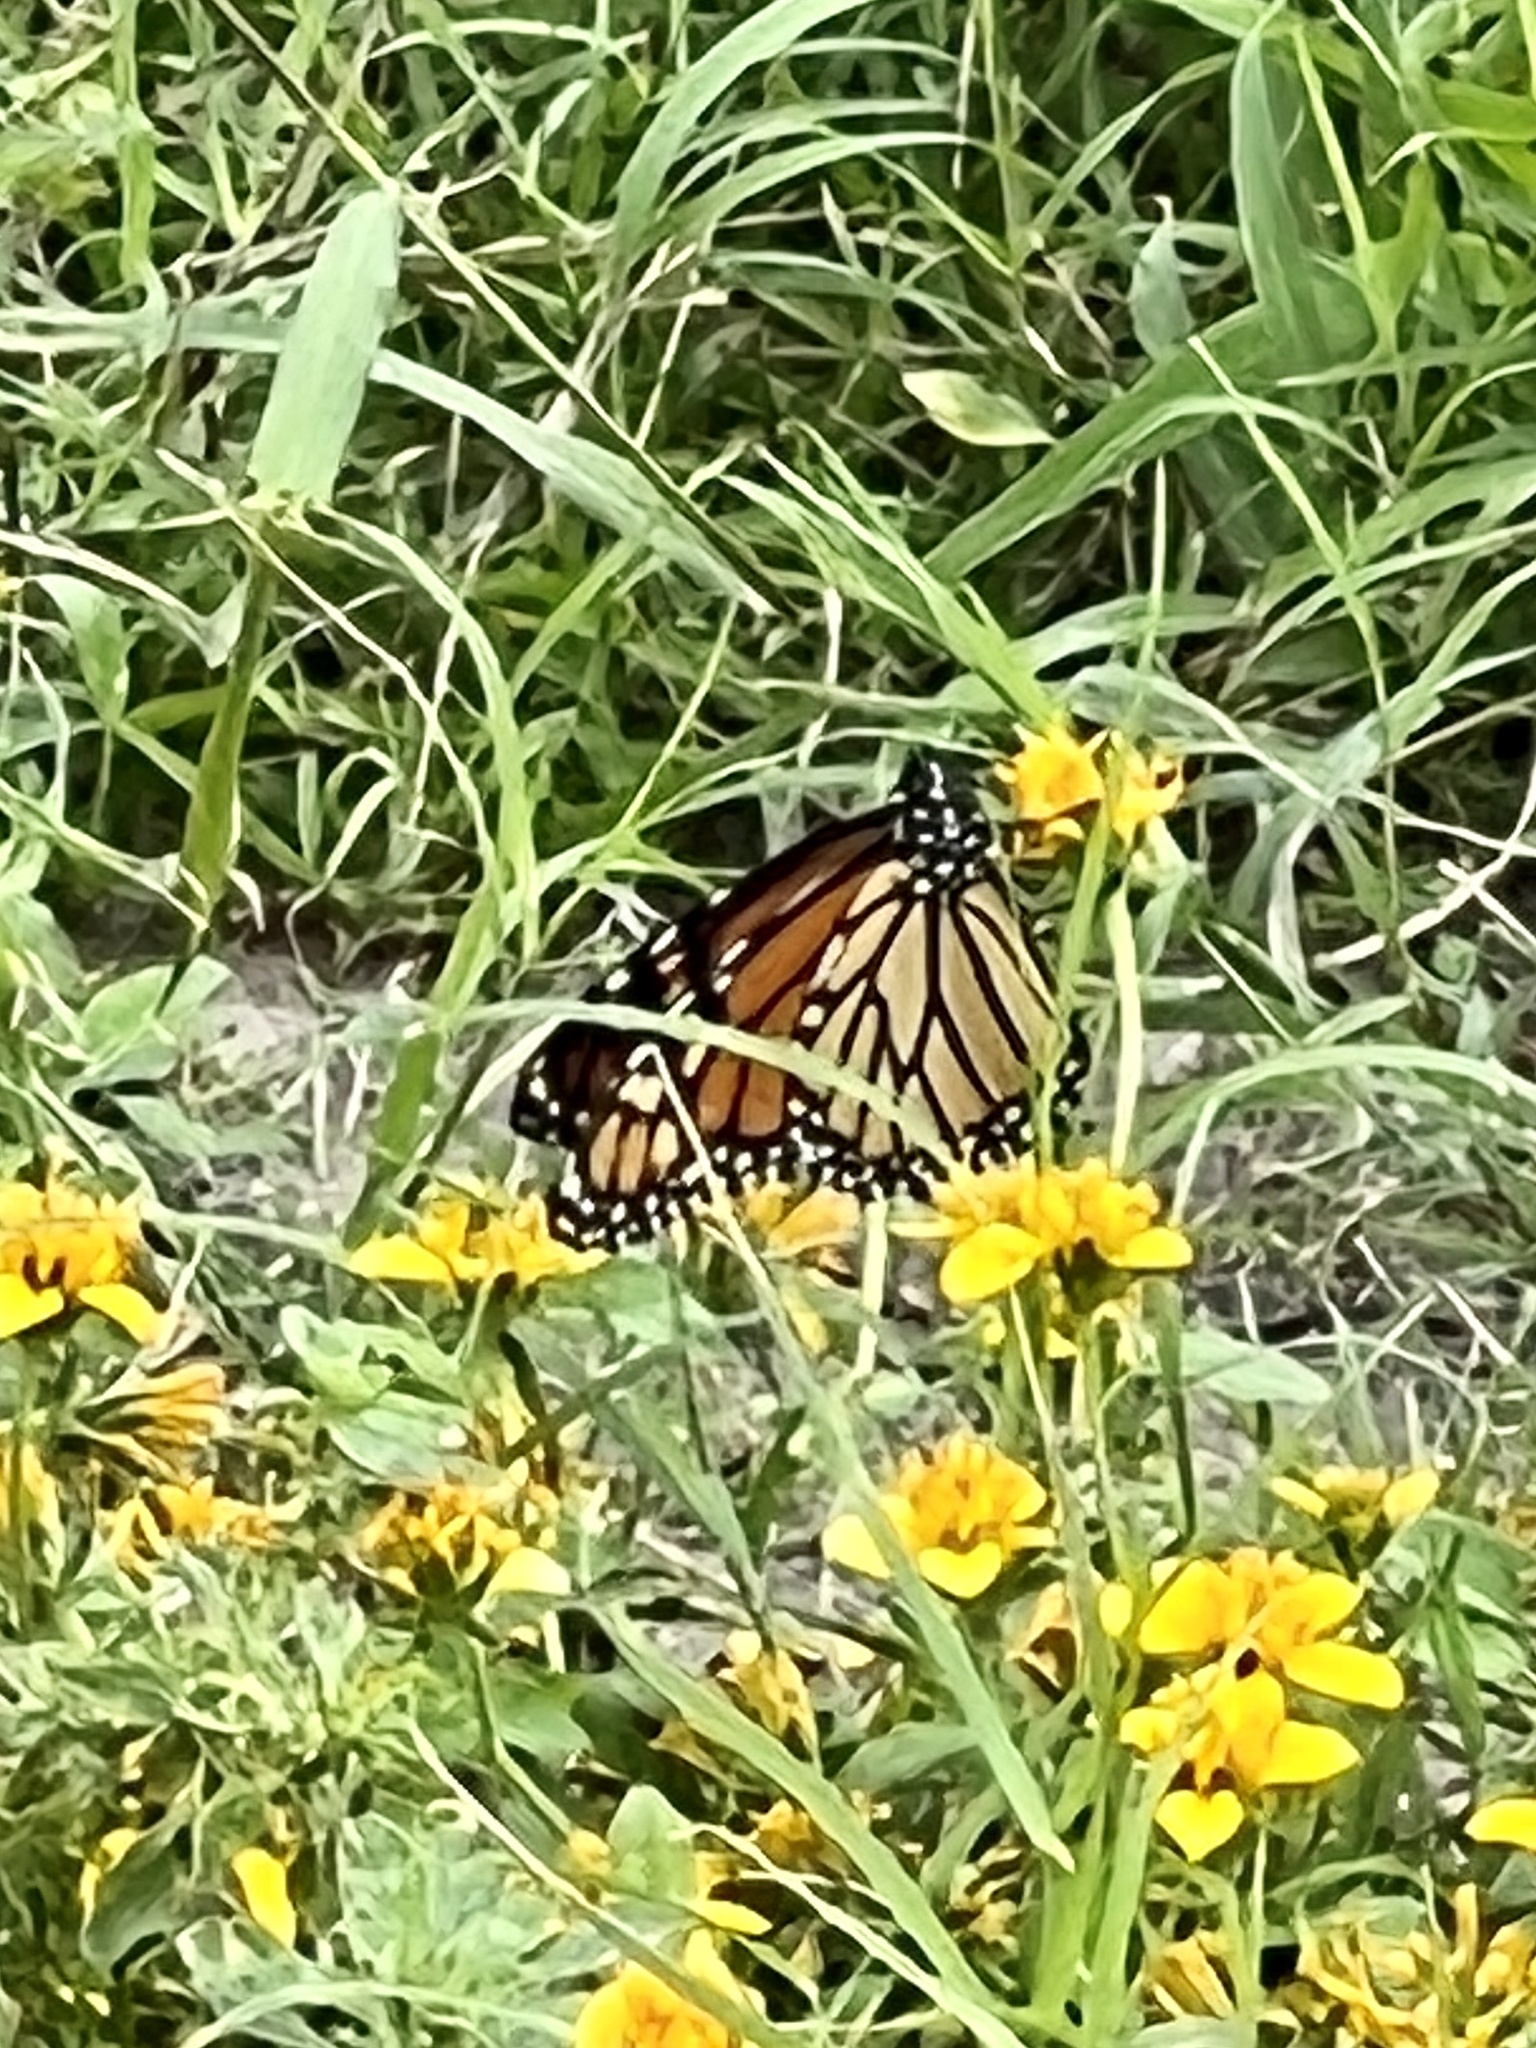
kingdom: Animalia
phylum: Arthropoda
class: Insecta
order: Lepidoptera
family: Nymphalidae
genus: Danaus
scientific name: Danaus plexippus
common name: Monarch
